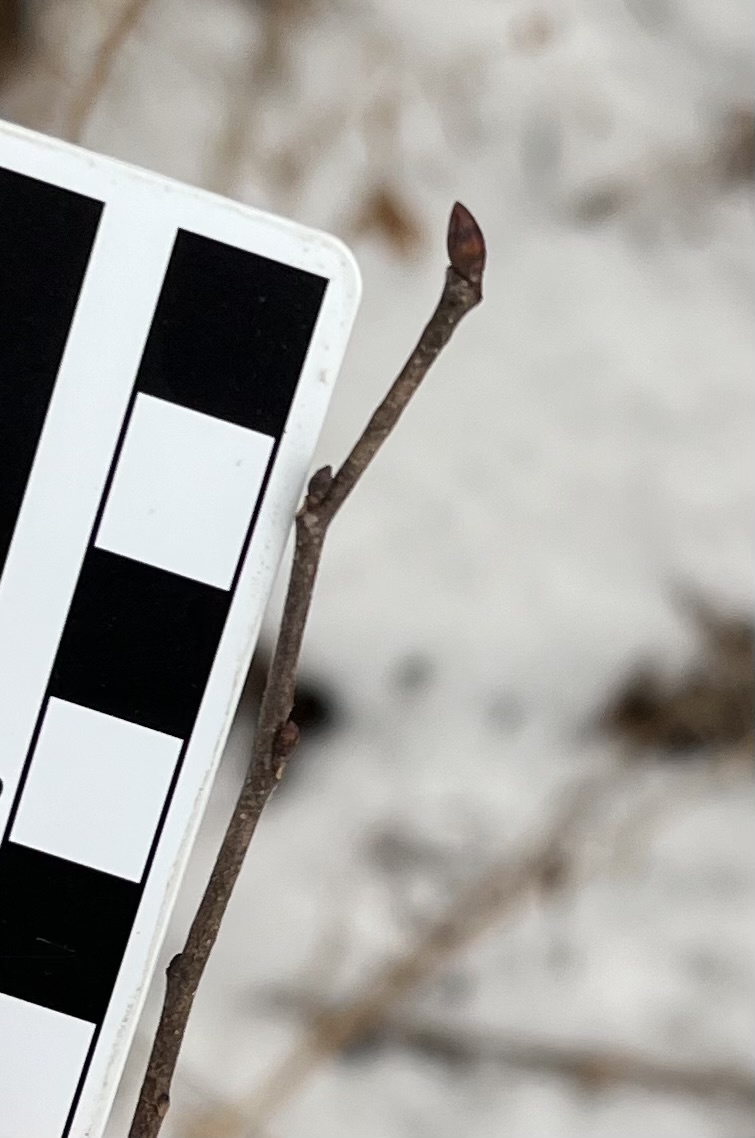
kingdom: Plantae
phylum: Tracheophyta
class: Magnoliopsida
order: Rosales
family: Ulmaceae
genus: Ulmus
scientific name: Ulmus americana
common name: American elm
